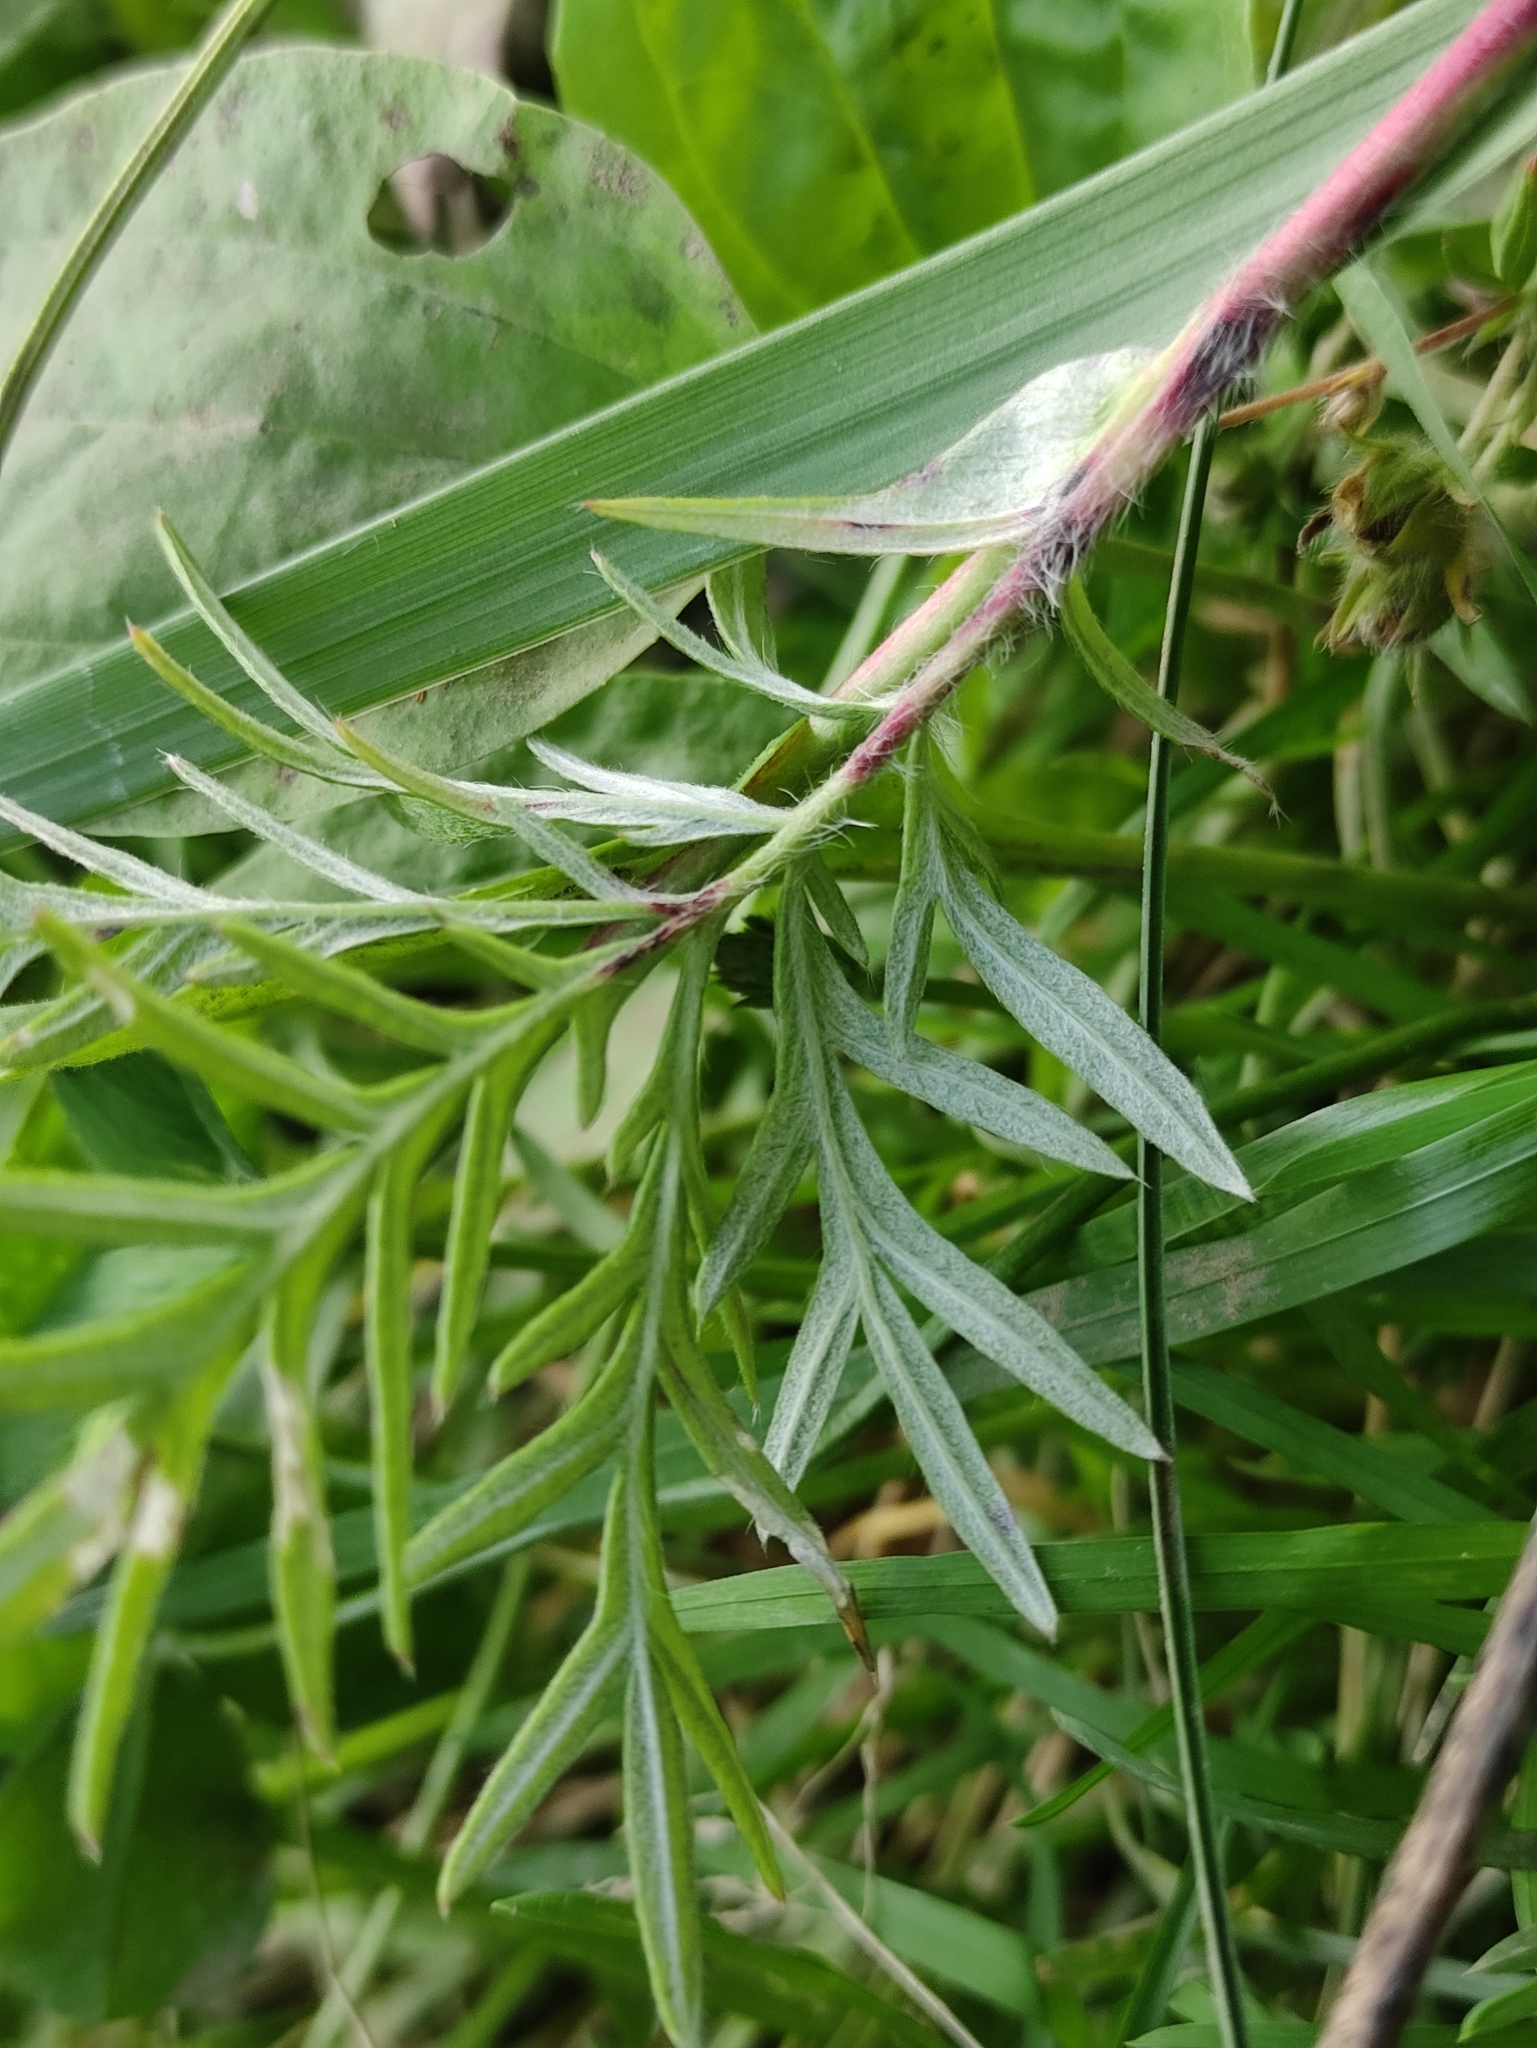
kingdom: Plantae
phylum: Tracheophyta
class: Magnoliopsida
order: Rosales
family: Rosaceae
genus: Potentilla
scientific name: Potentilla tergemina
